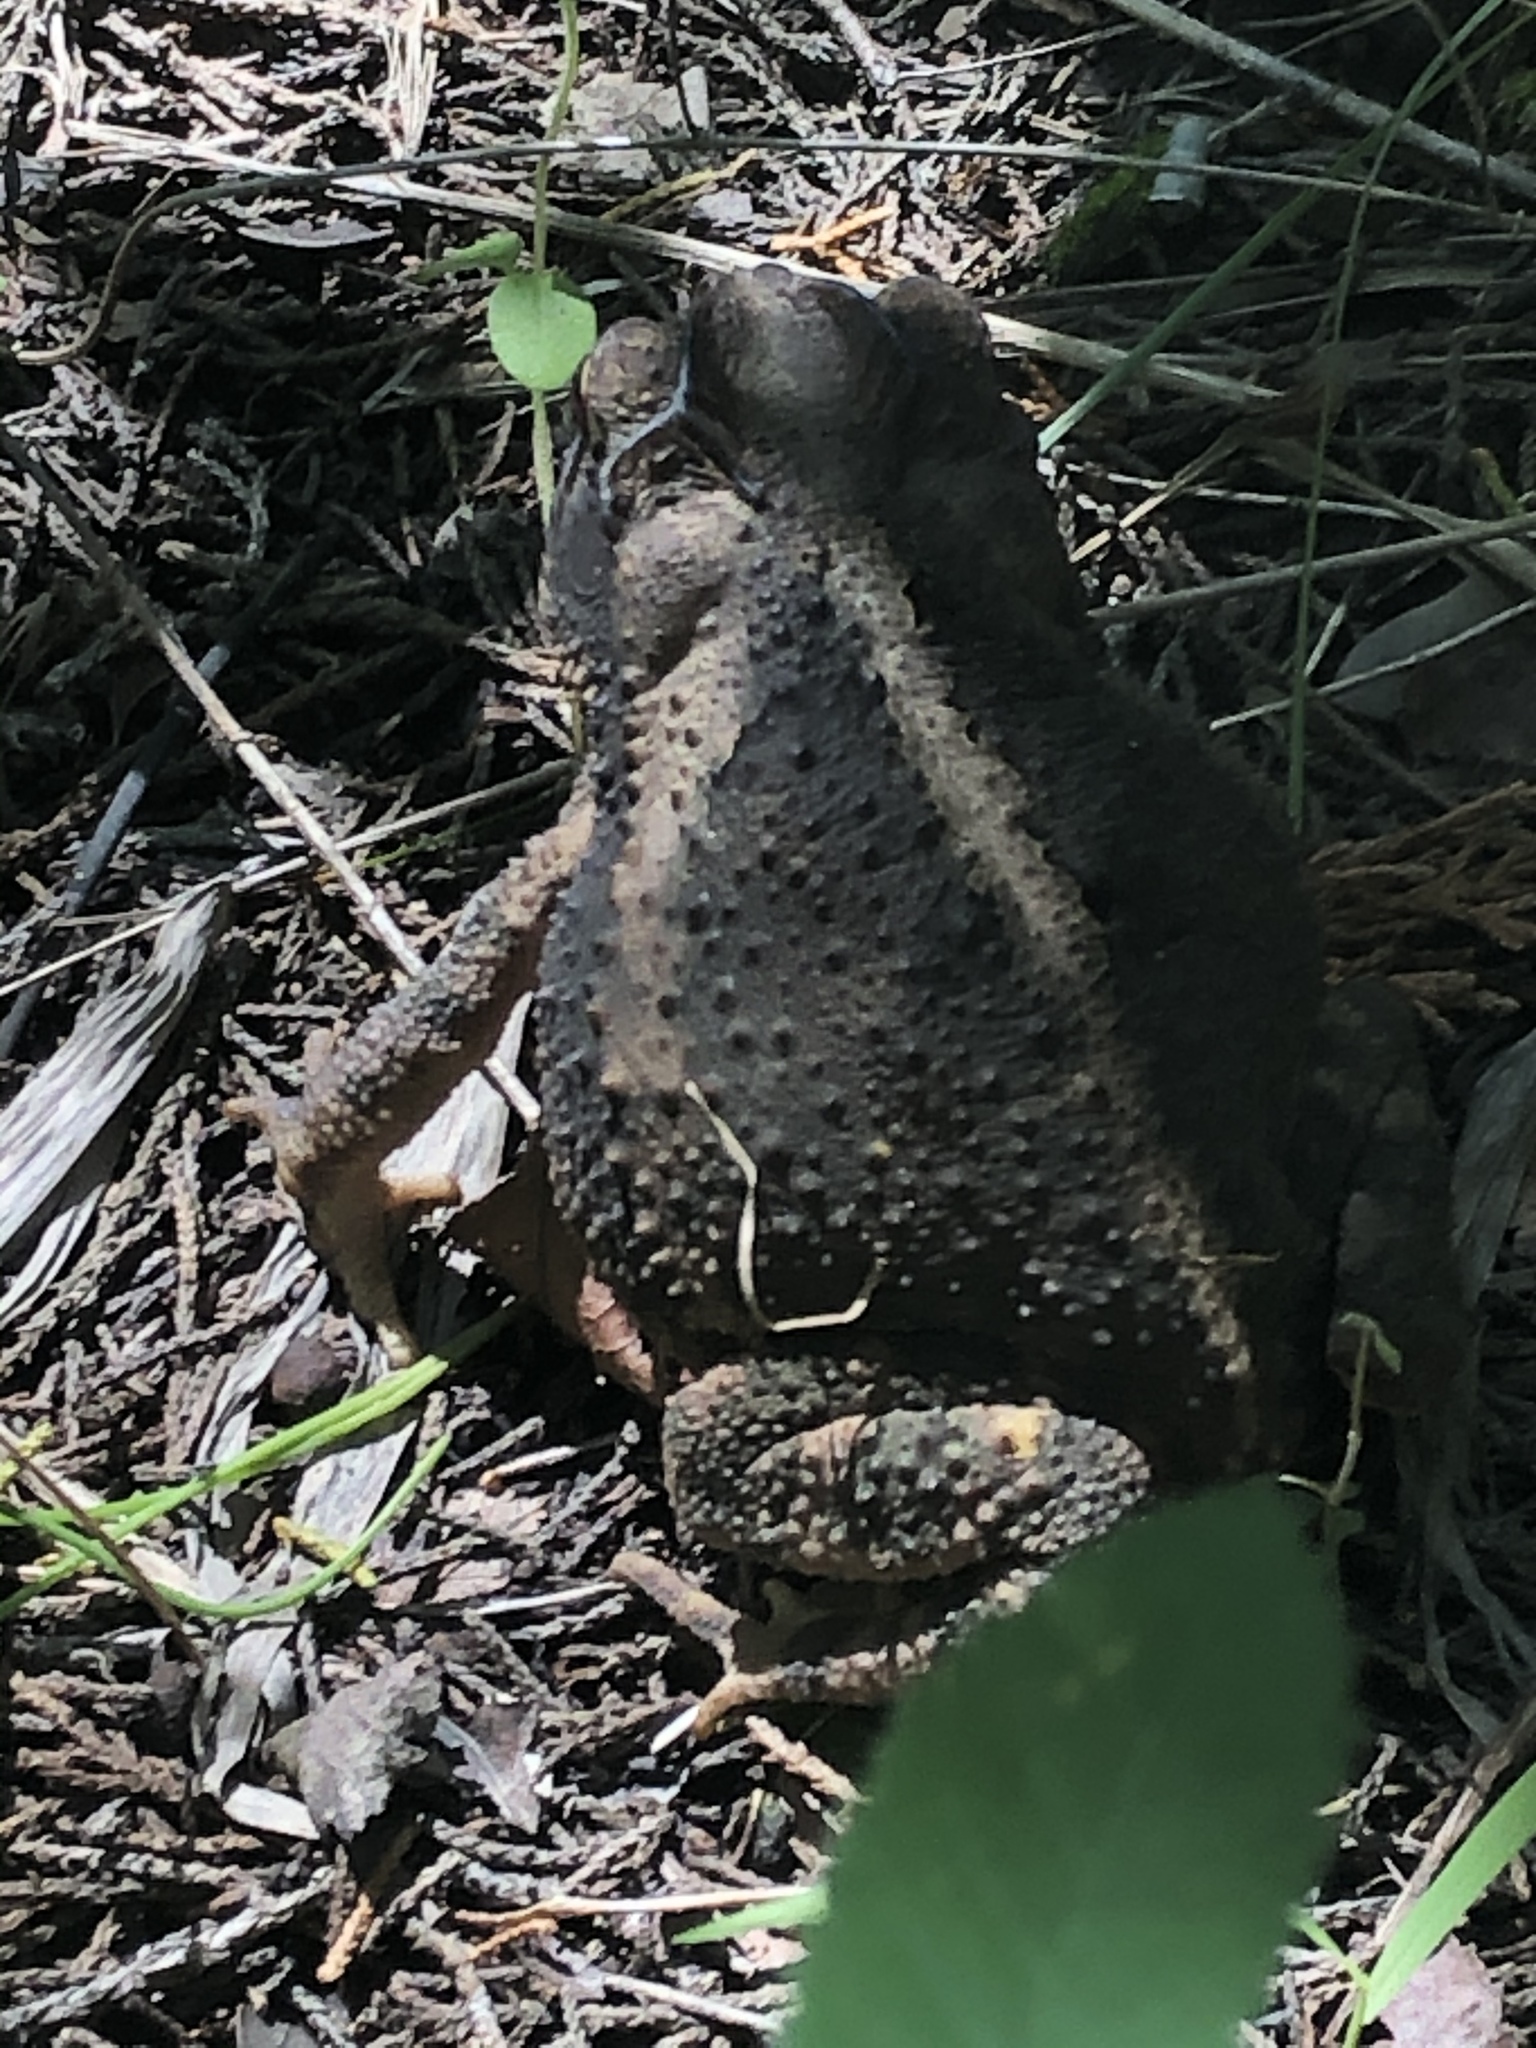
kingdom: Animalia
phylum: Chordata
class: Amphibia
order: Anura
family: Bufonidae
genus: Incilius
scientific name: Incilius nebulifer
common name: Gulf coast toad
